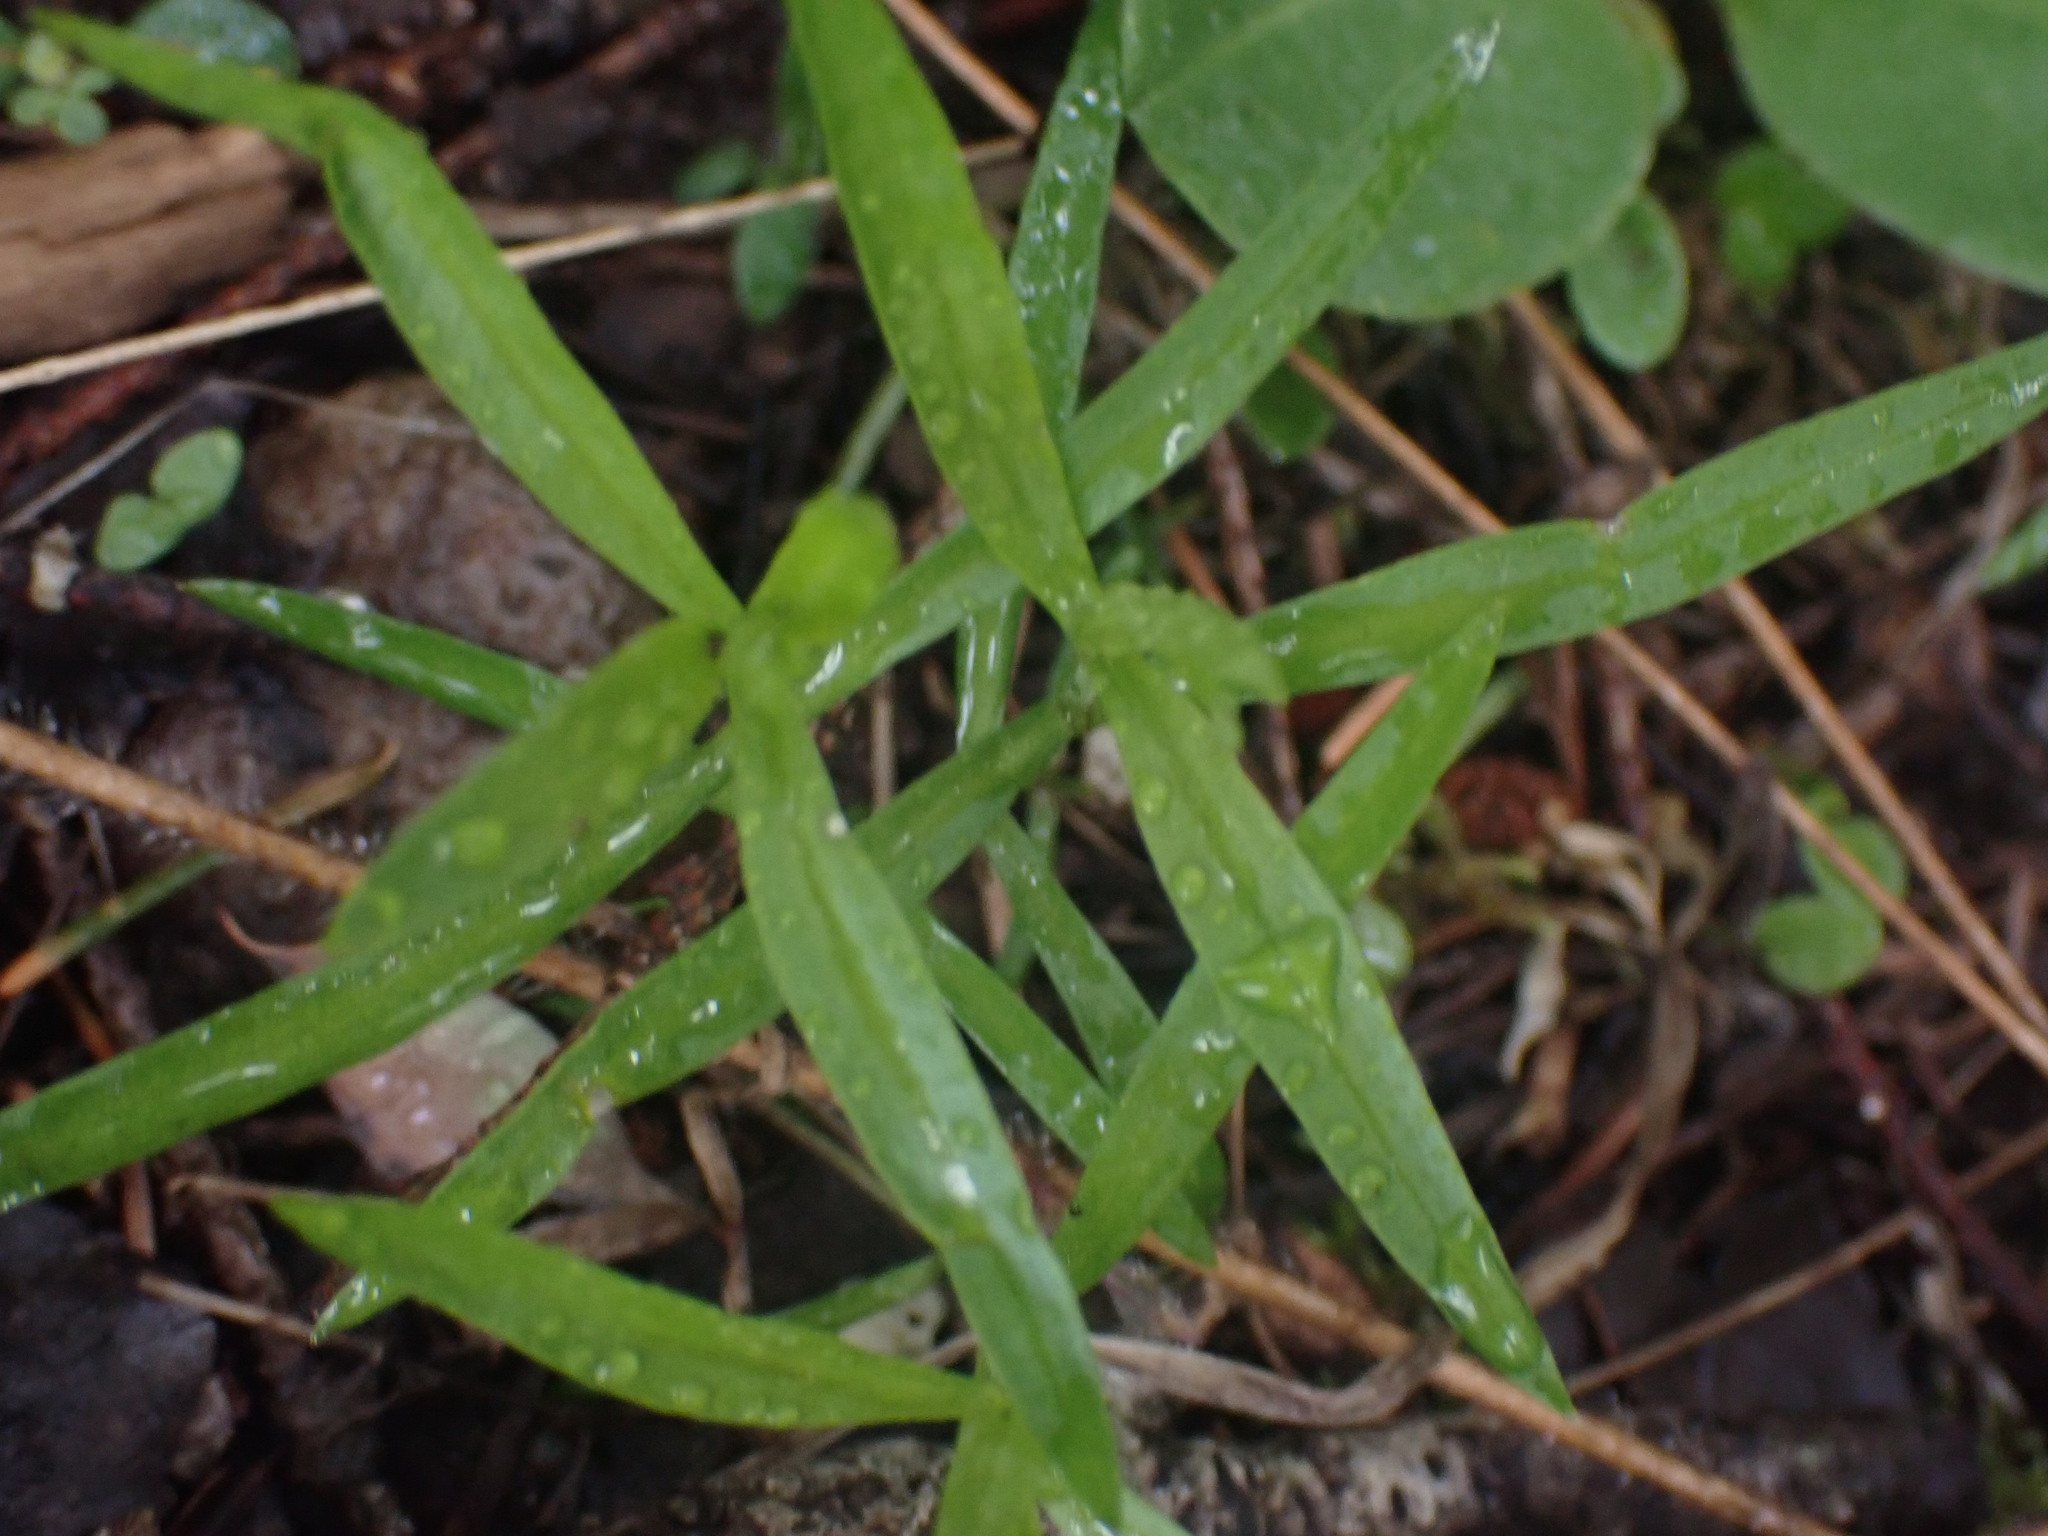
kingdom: Plantae
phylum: Tracheophyta
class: Magnoliopsida
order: Caryophyllales
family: Caryophyllaceae
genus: Moehringia
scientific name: Moehringia macrophylla
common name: Big-leaf sandwort
